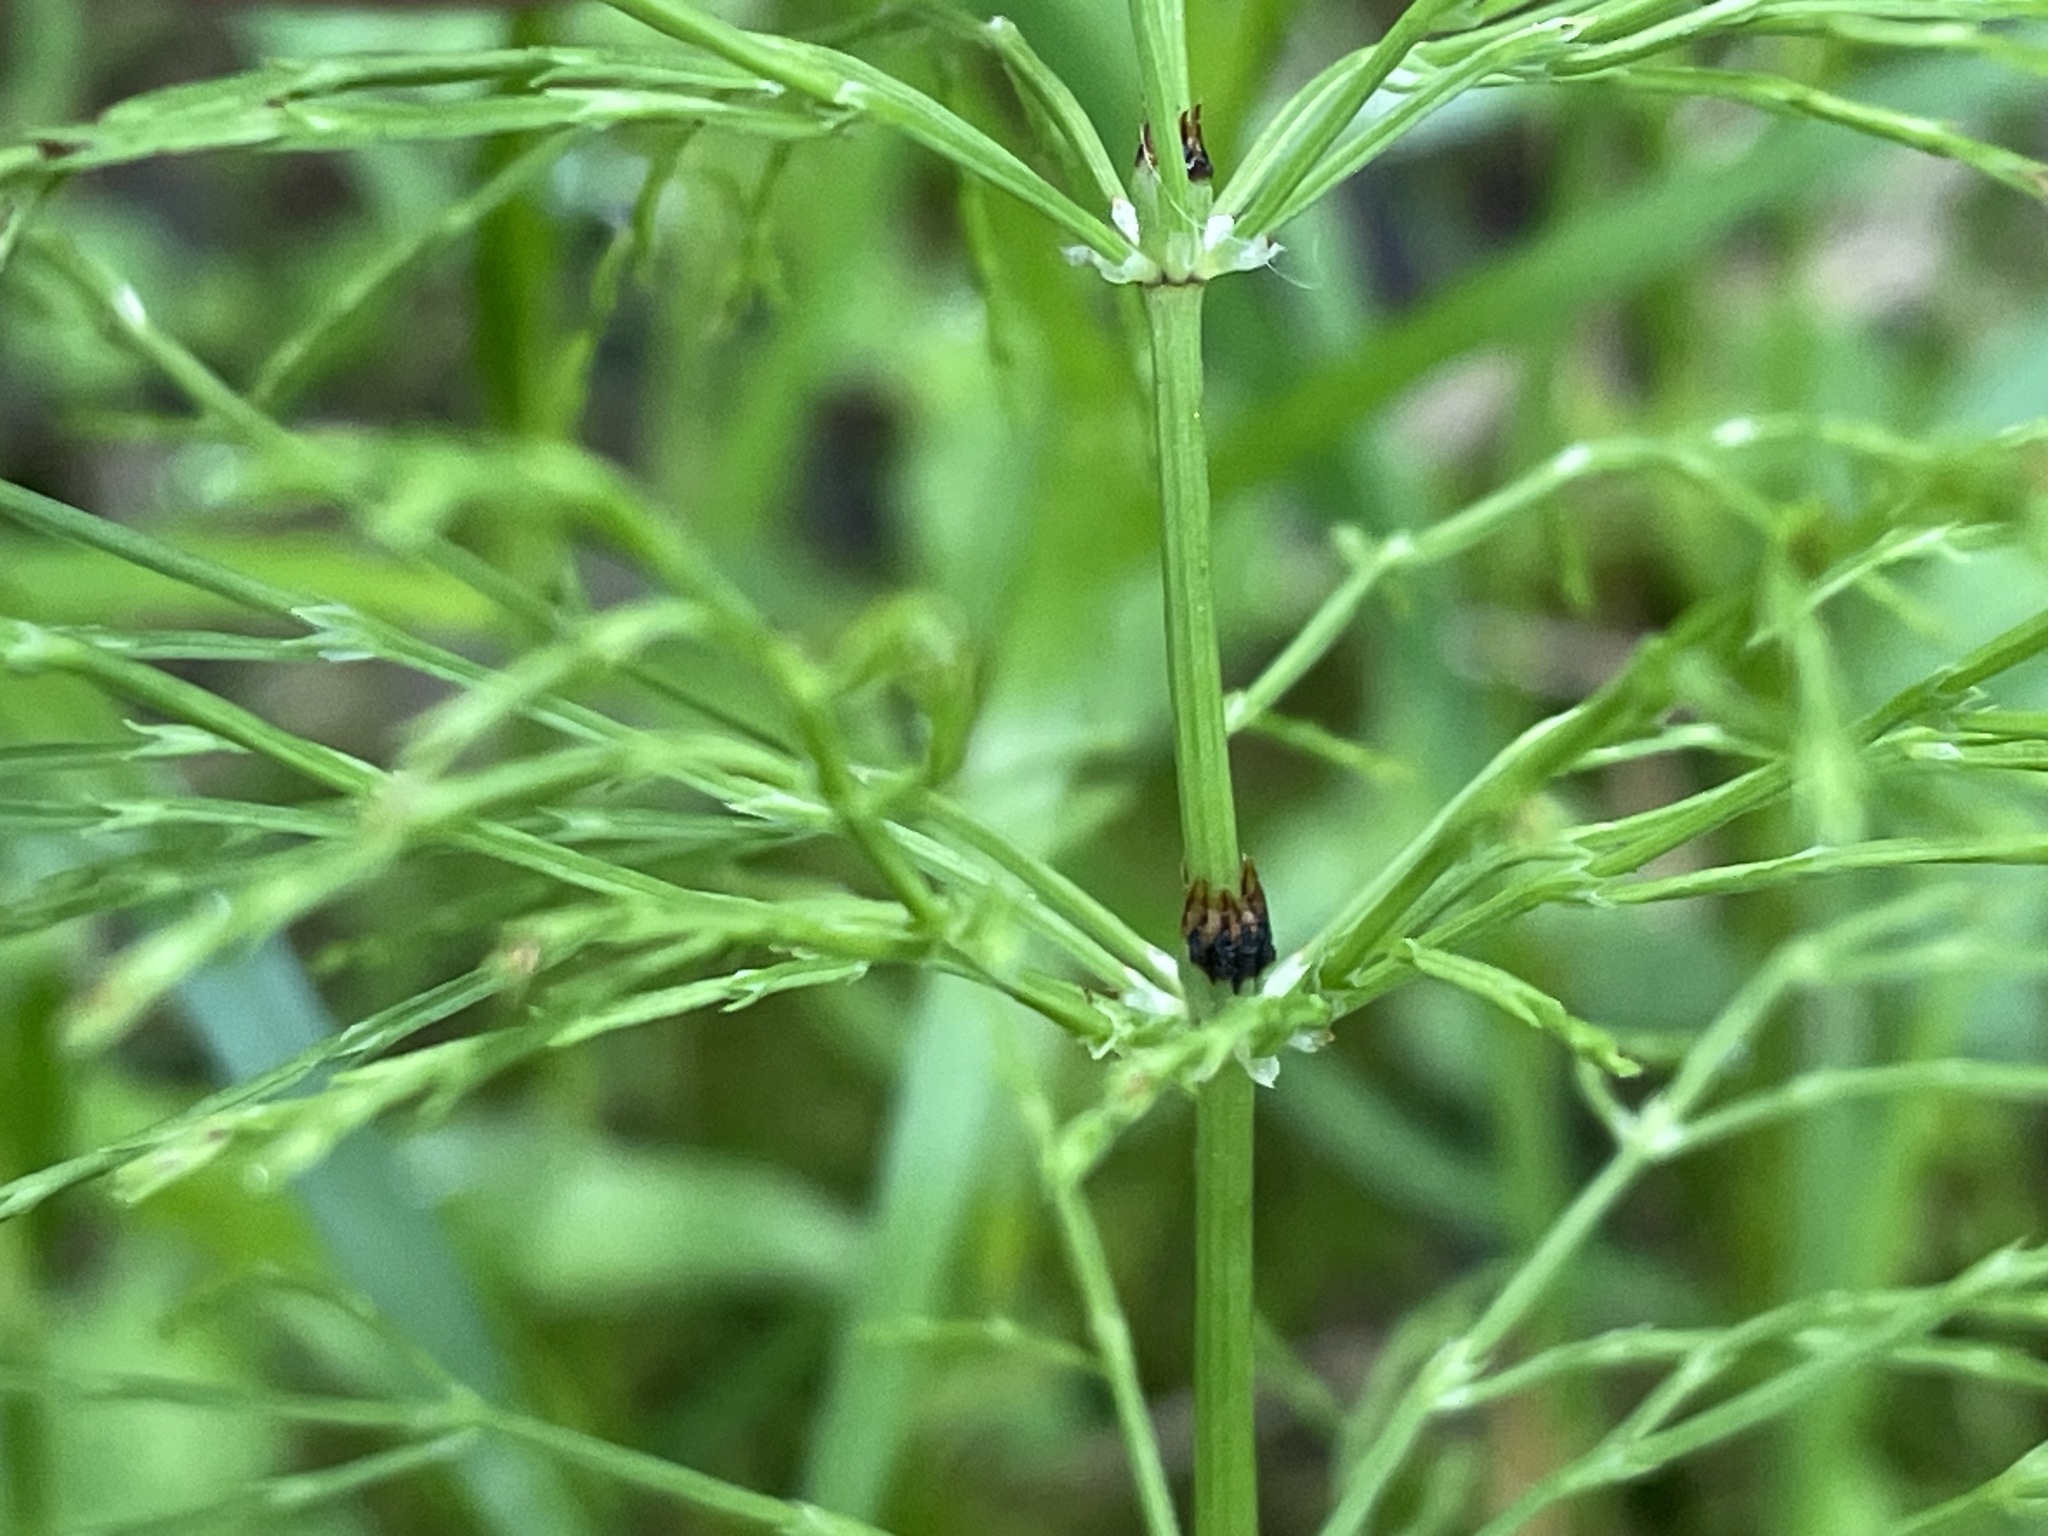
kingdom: Plantae
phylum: Tracheophyta
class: Polypodiopsida
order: Equisetales
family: Equisetaceae
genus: Equisetum
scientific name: Equisetum sylvaticum
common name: Wood horsetail
